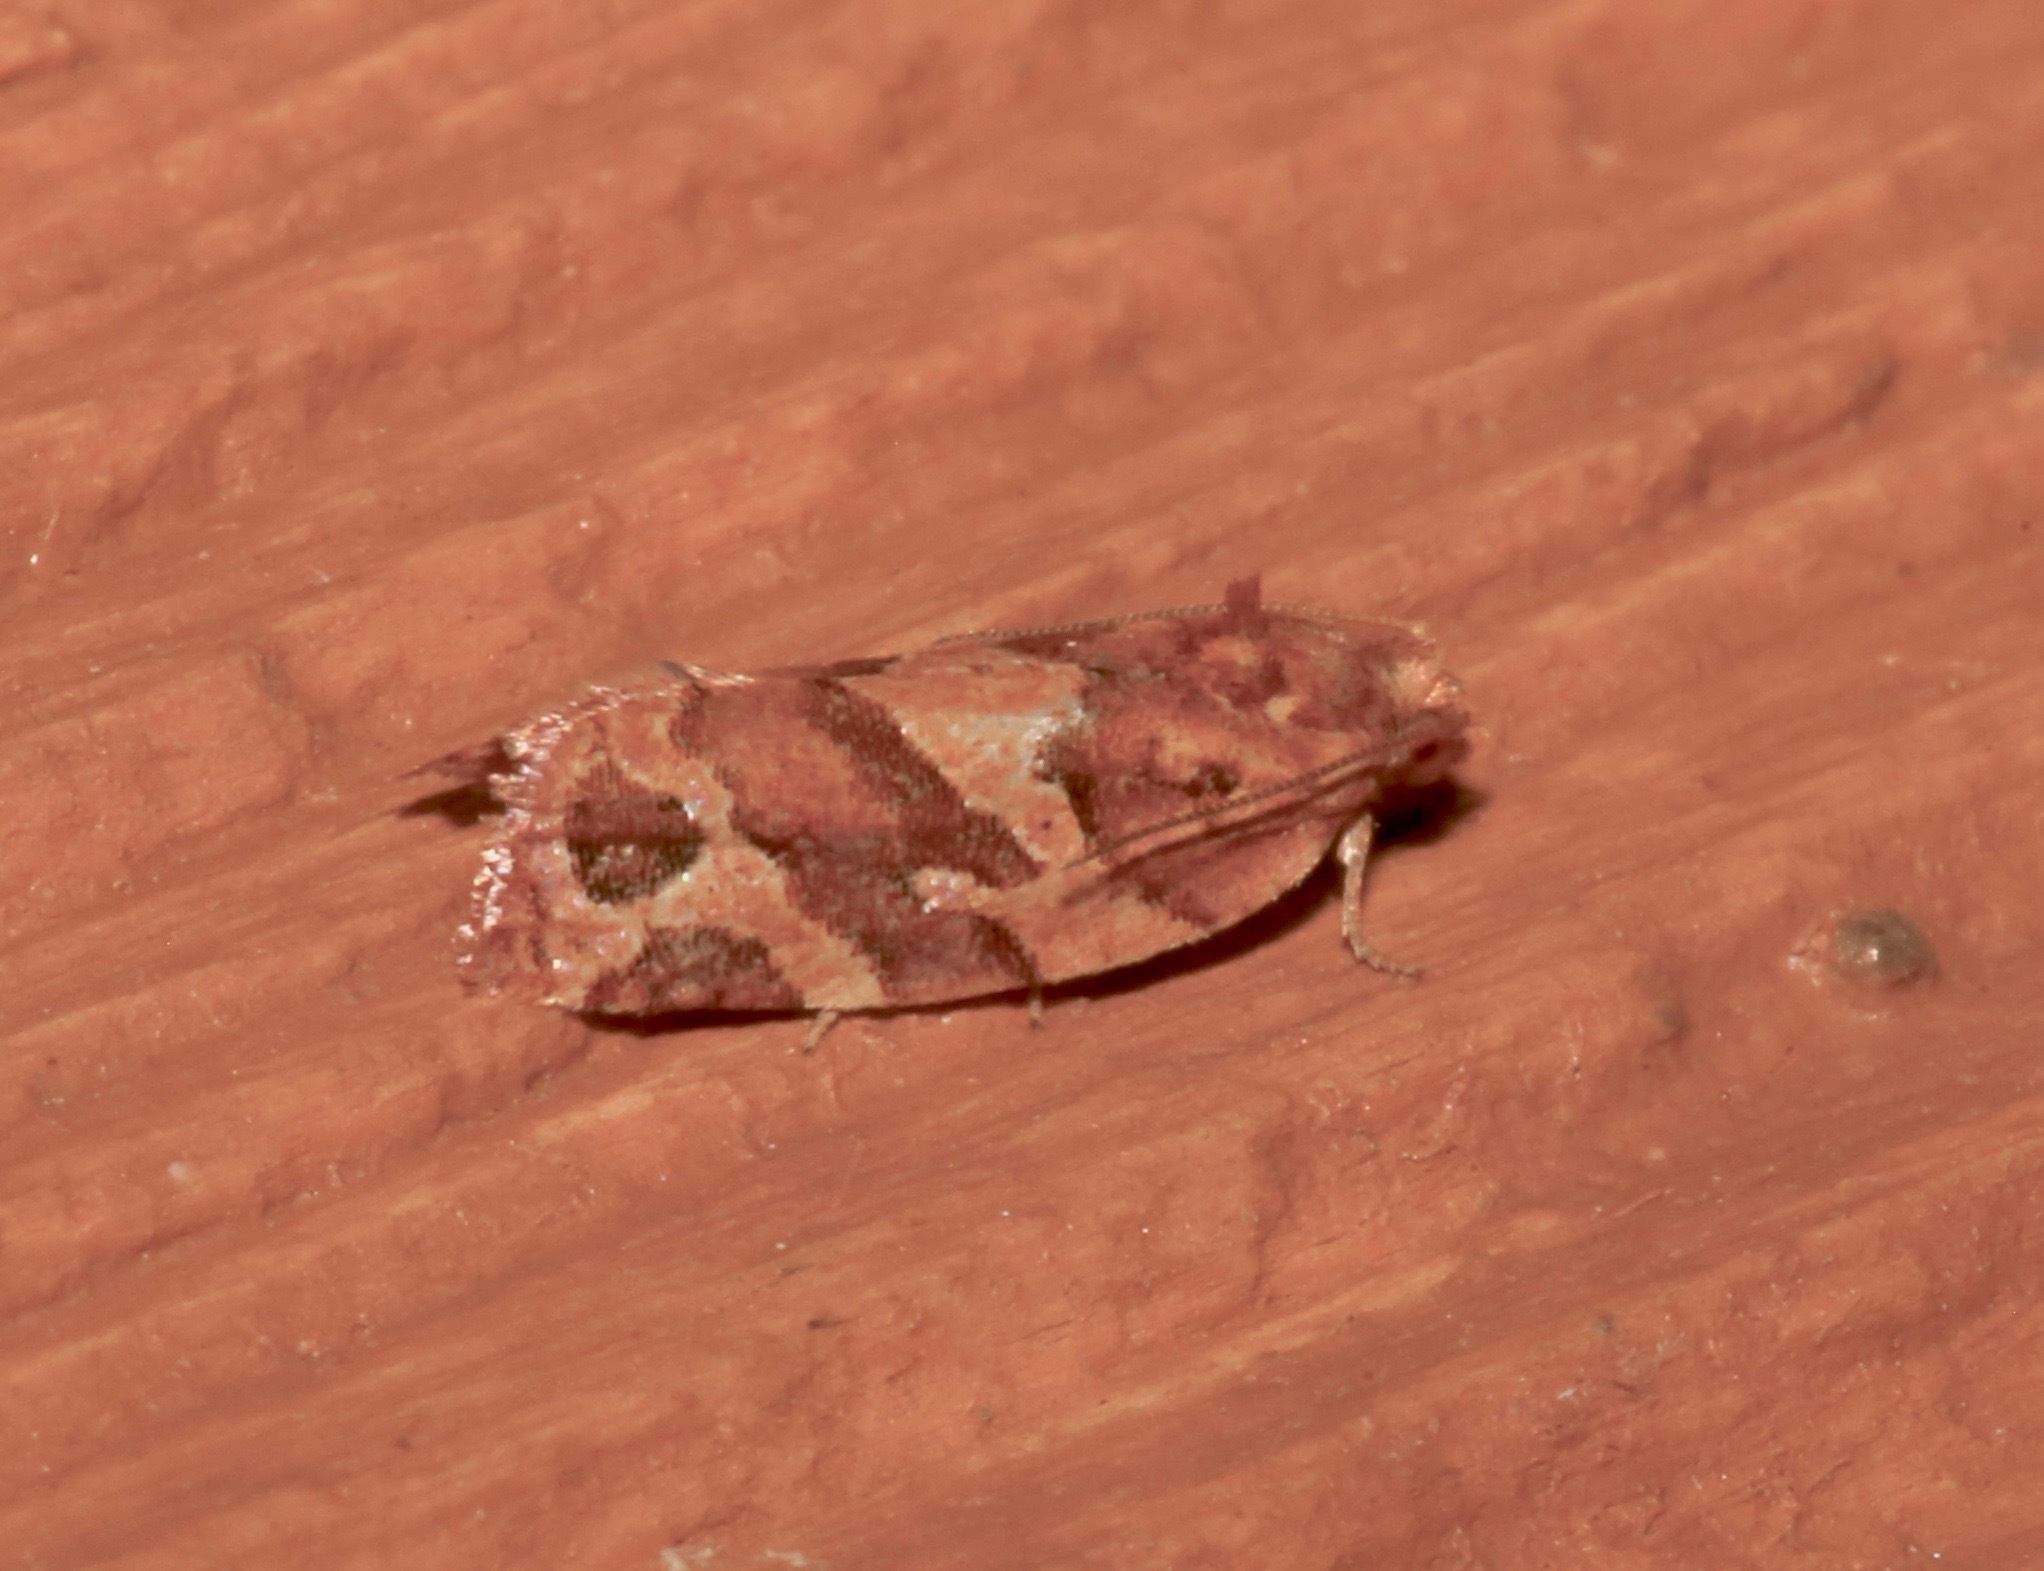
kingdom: Animalia
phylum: Arthropoda
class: Insecta
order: Lepidoptera
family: Tortricidae
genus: Argyrotaenia
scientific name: Argyrotaenia hodgesi
